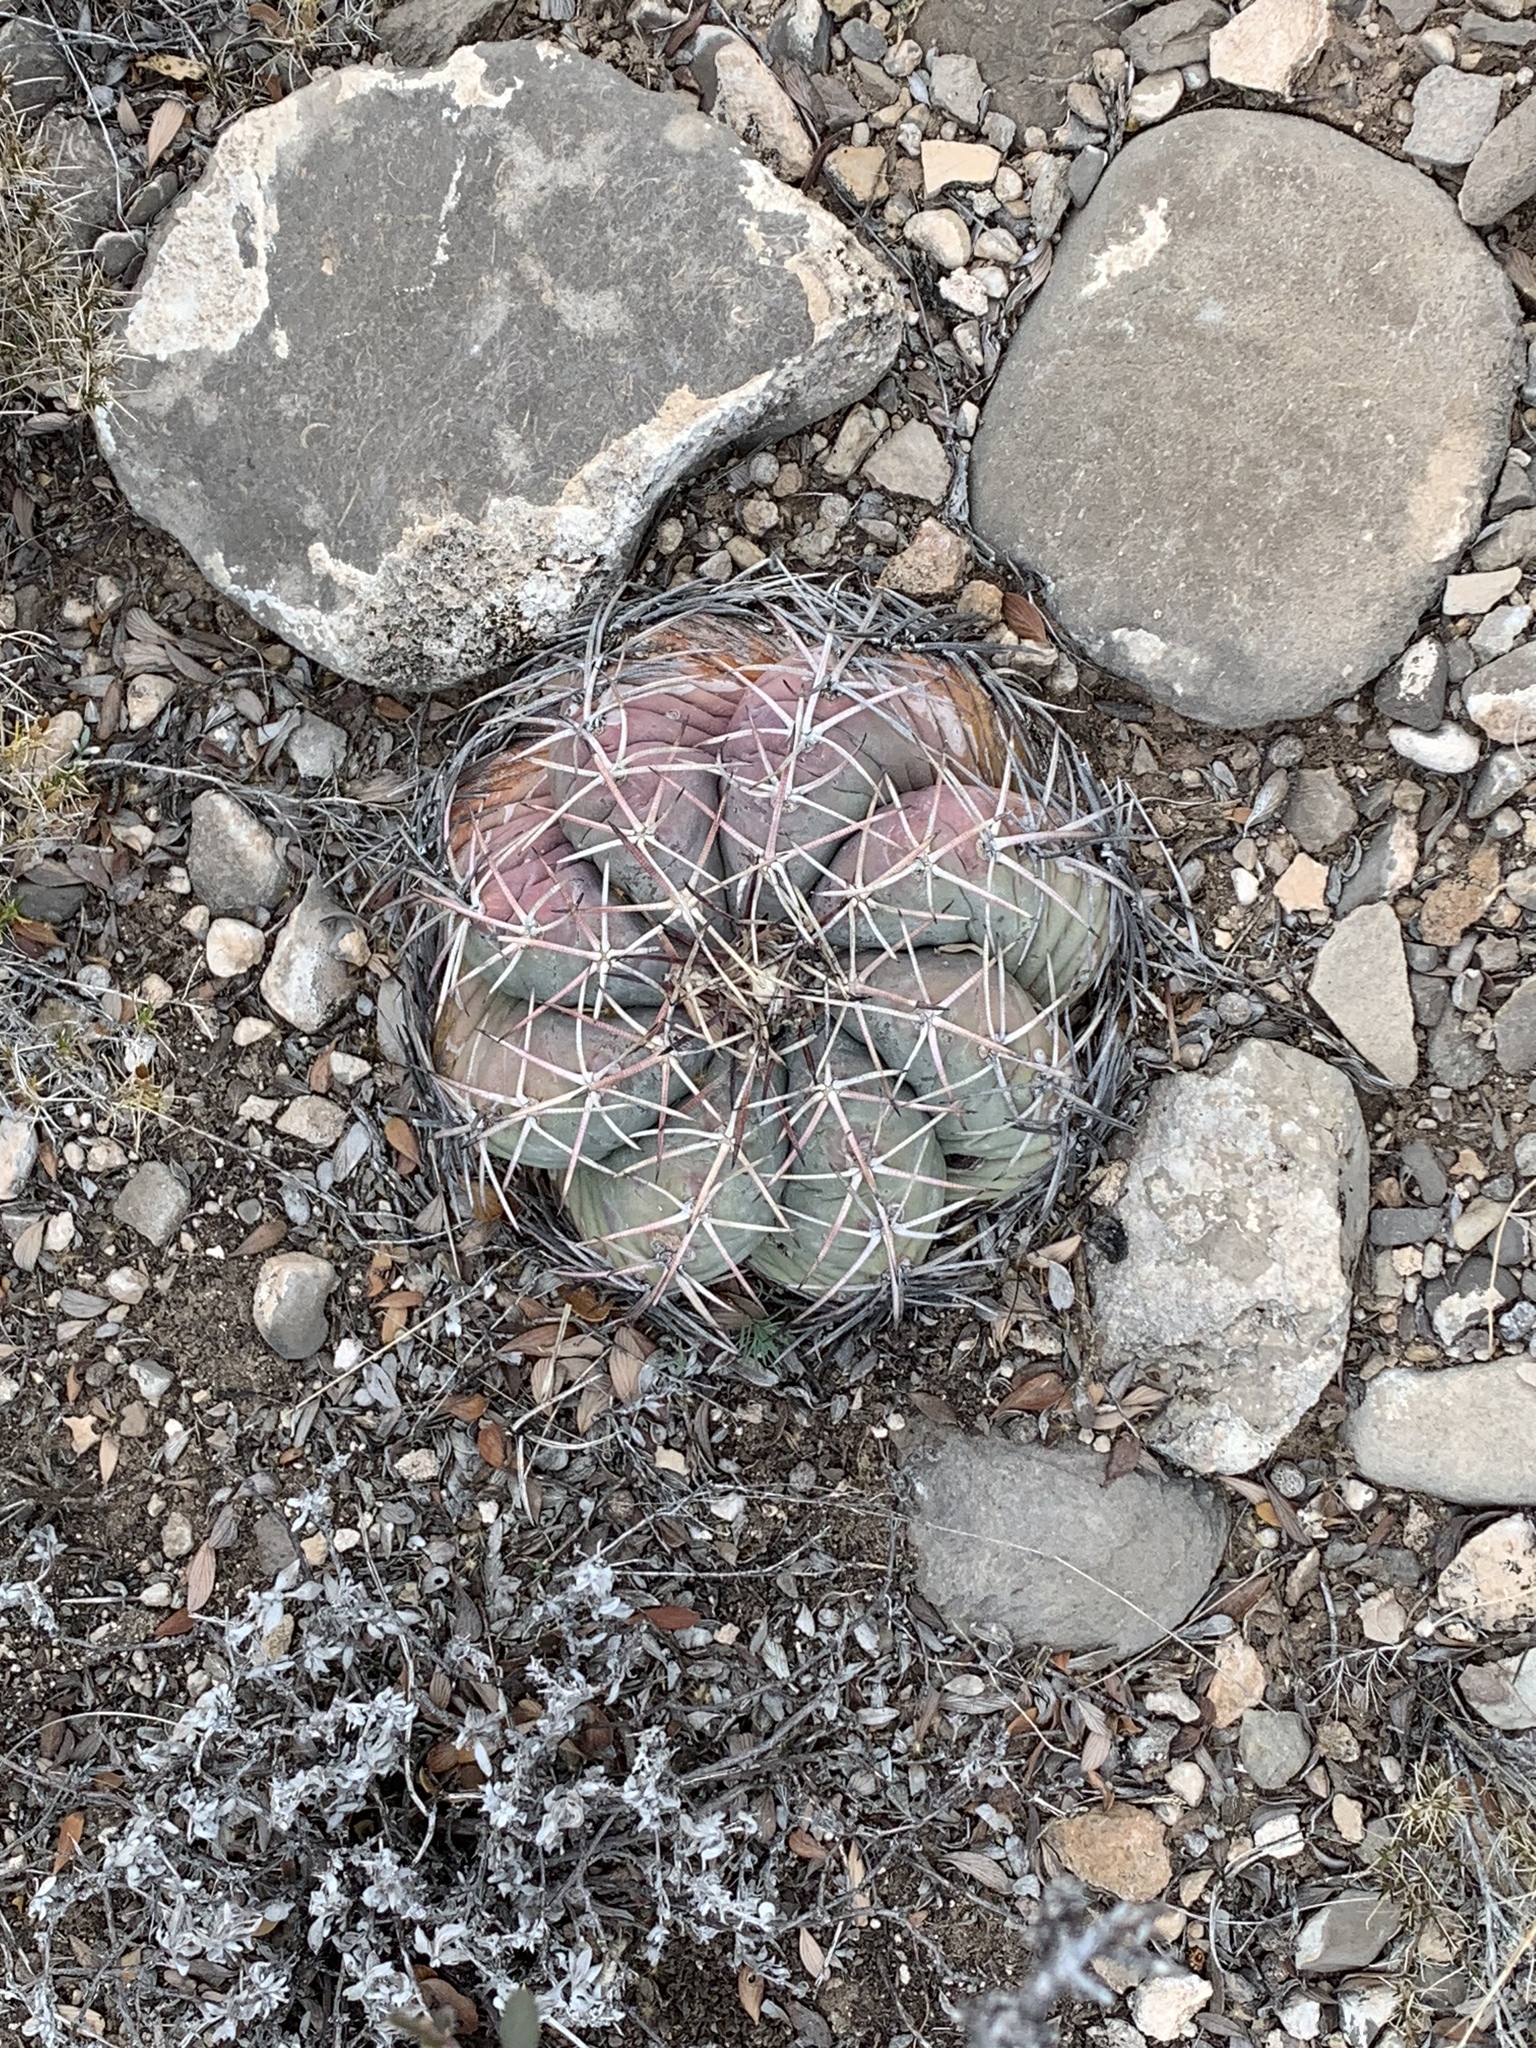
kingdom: Plantae
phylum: Tracheophyta
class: Magnoliopsida
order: Caryophyllales
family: Cactaceae
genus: Echinocactus
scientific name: Echinocactus horizonthalonius
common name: Devilshead
